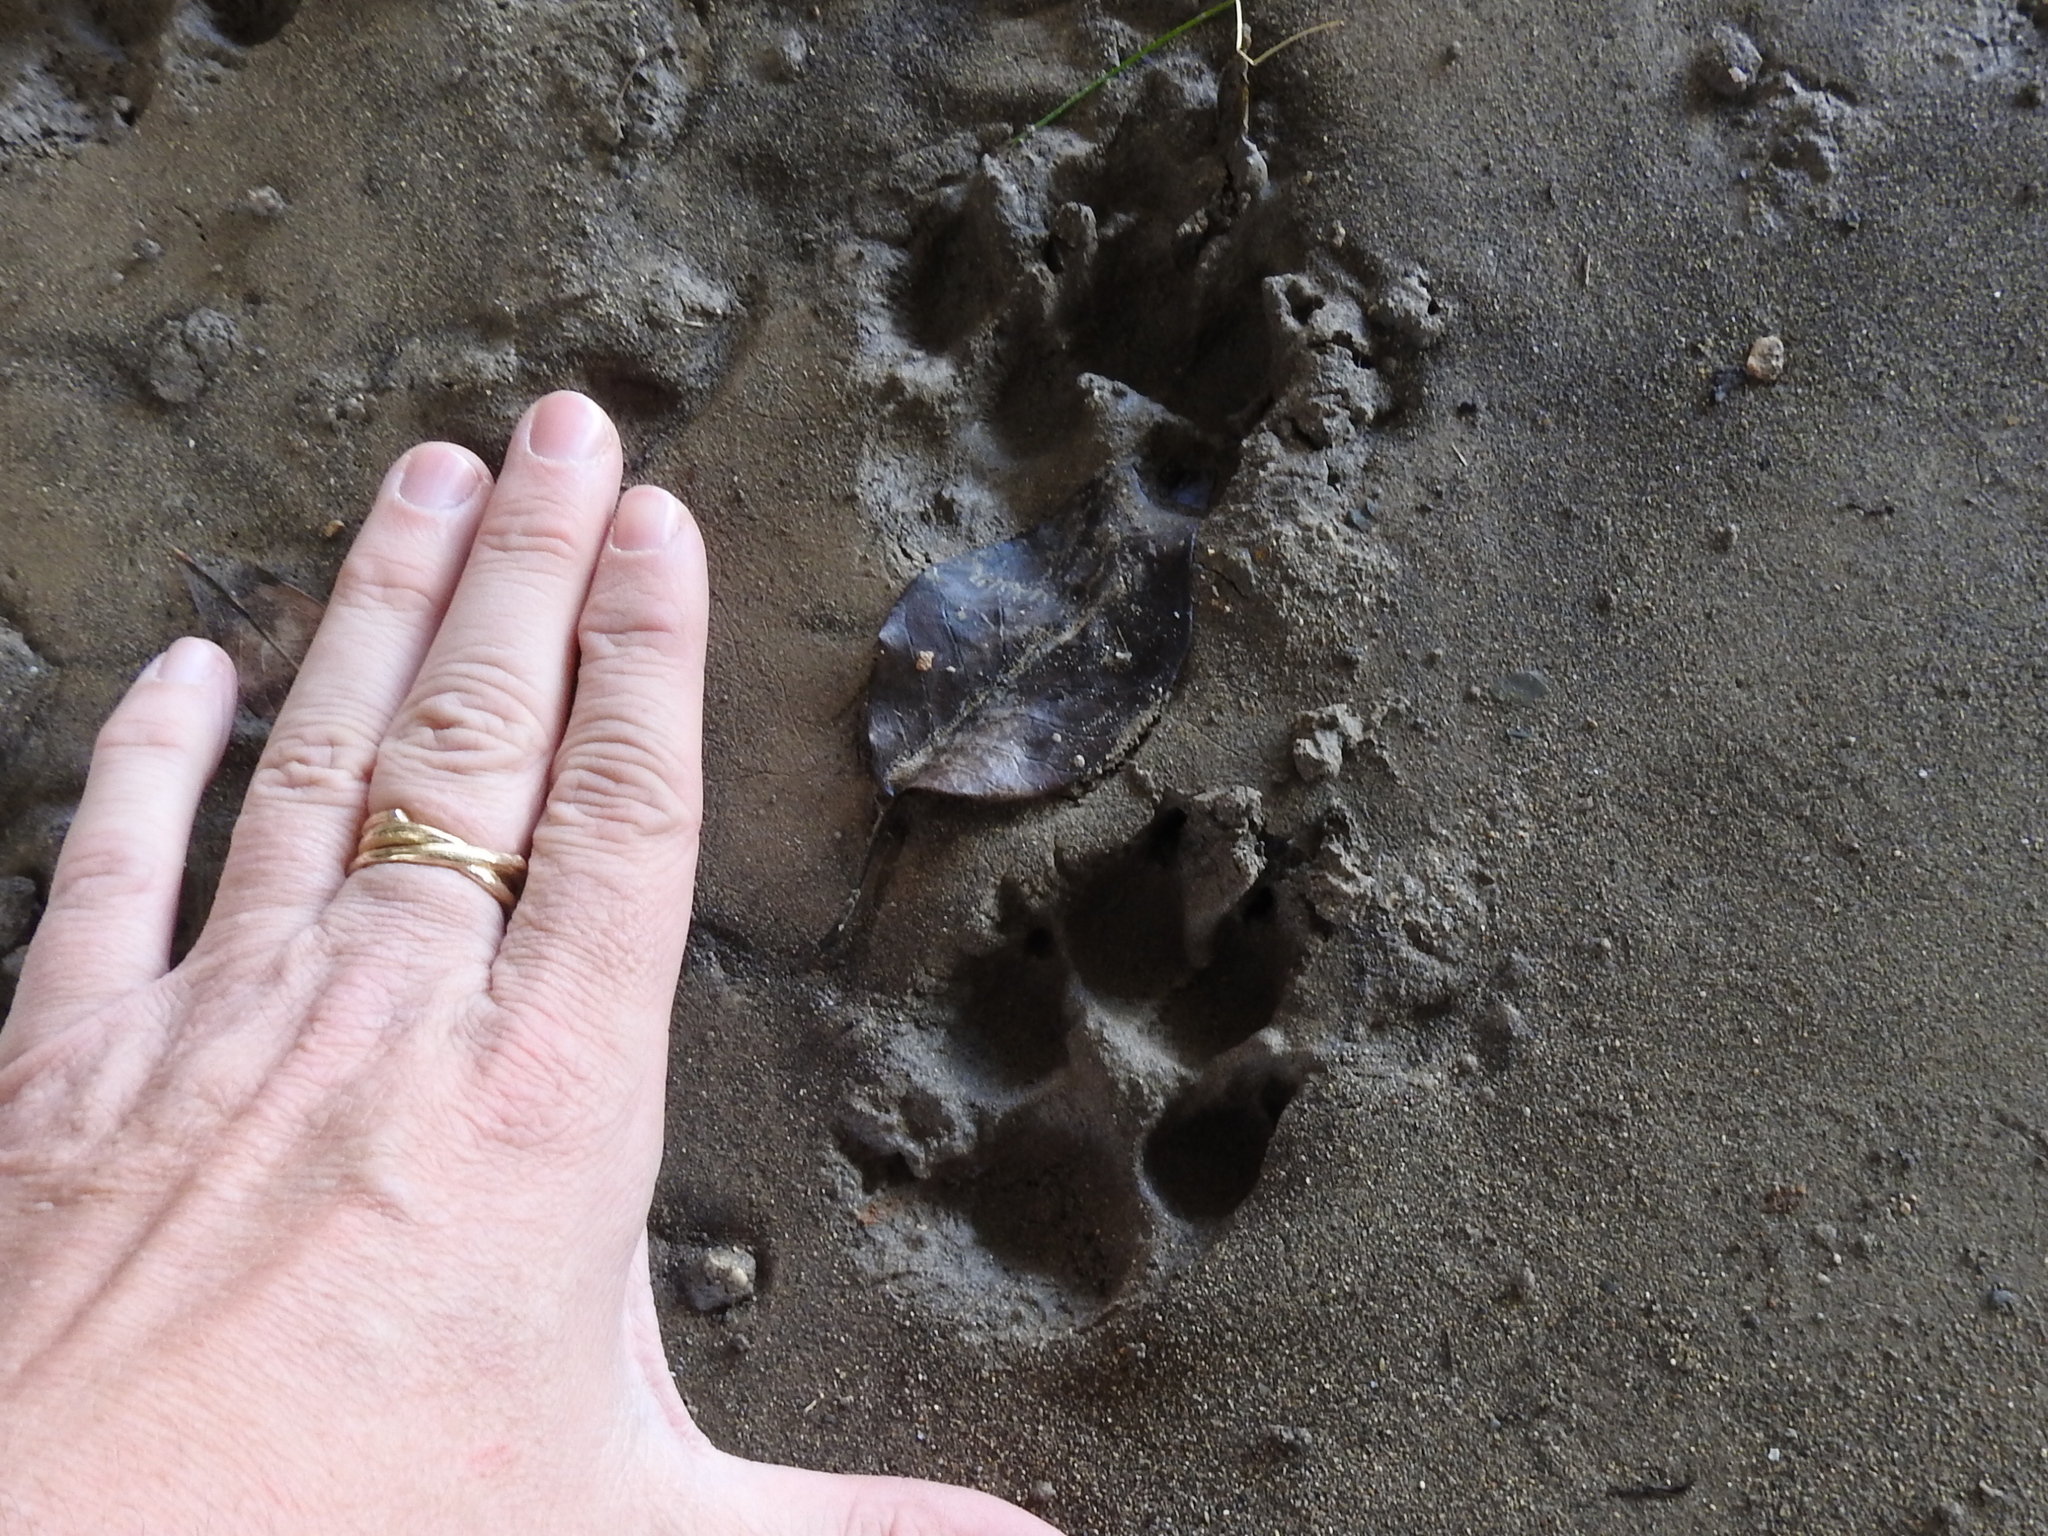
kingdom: Animalia
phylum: Chordata
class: Mammalia
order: Carnivora
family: Canidae
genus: Canis
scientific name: Canis latrans
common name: Coyote
